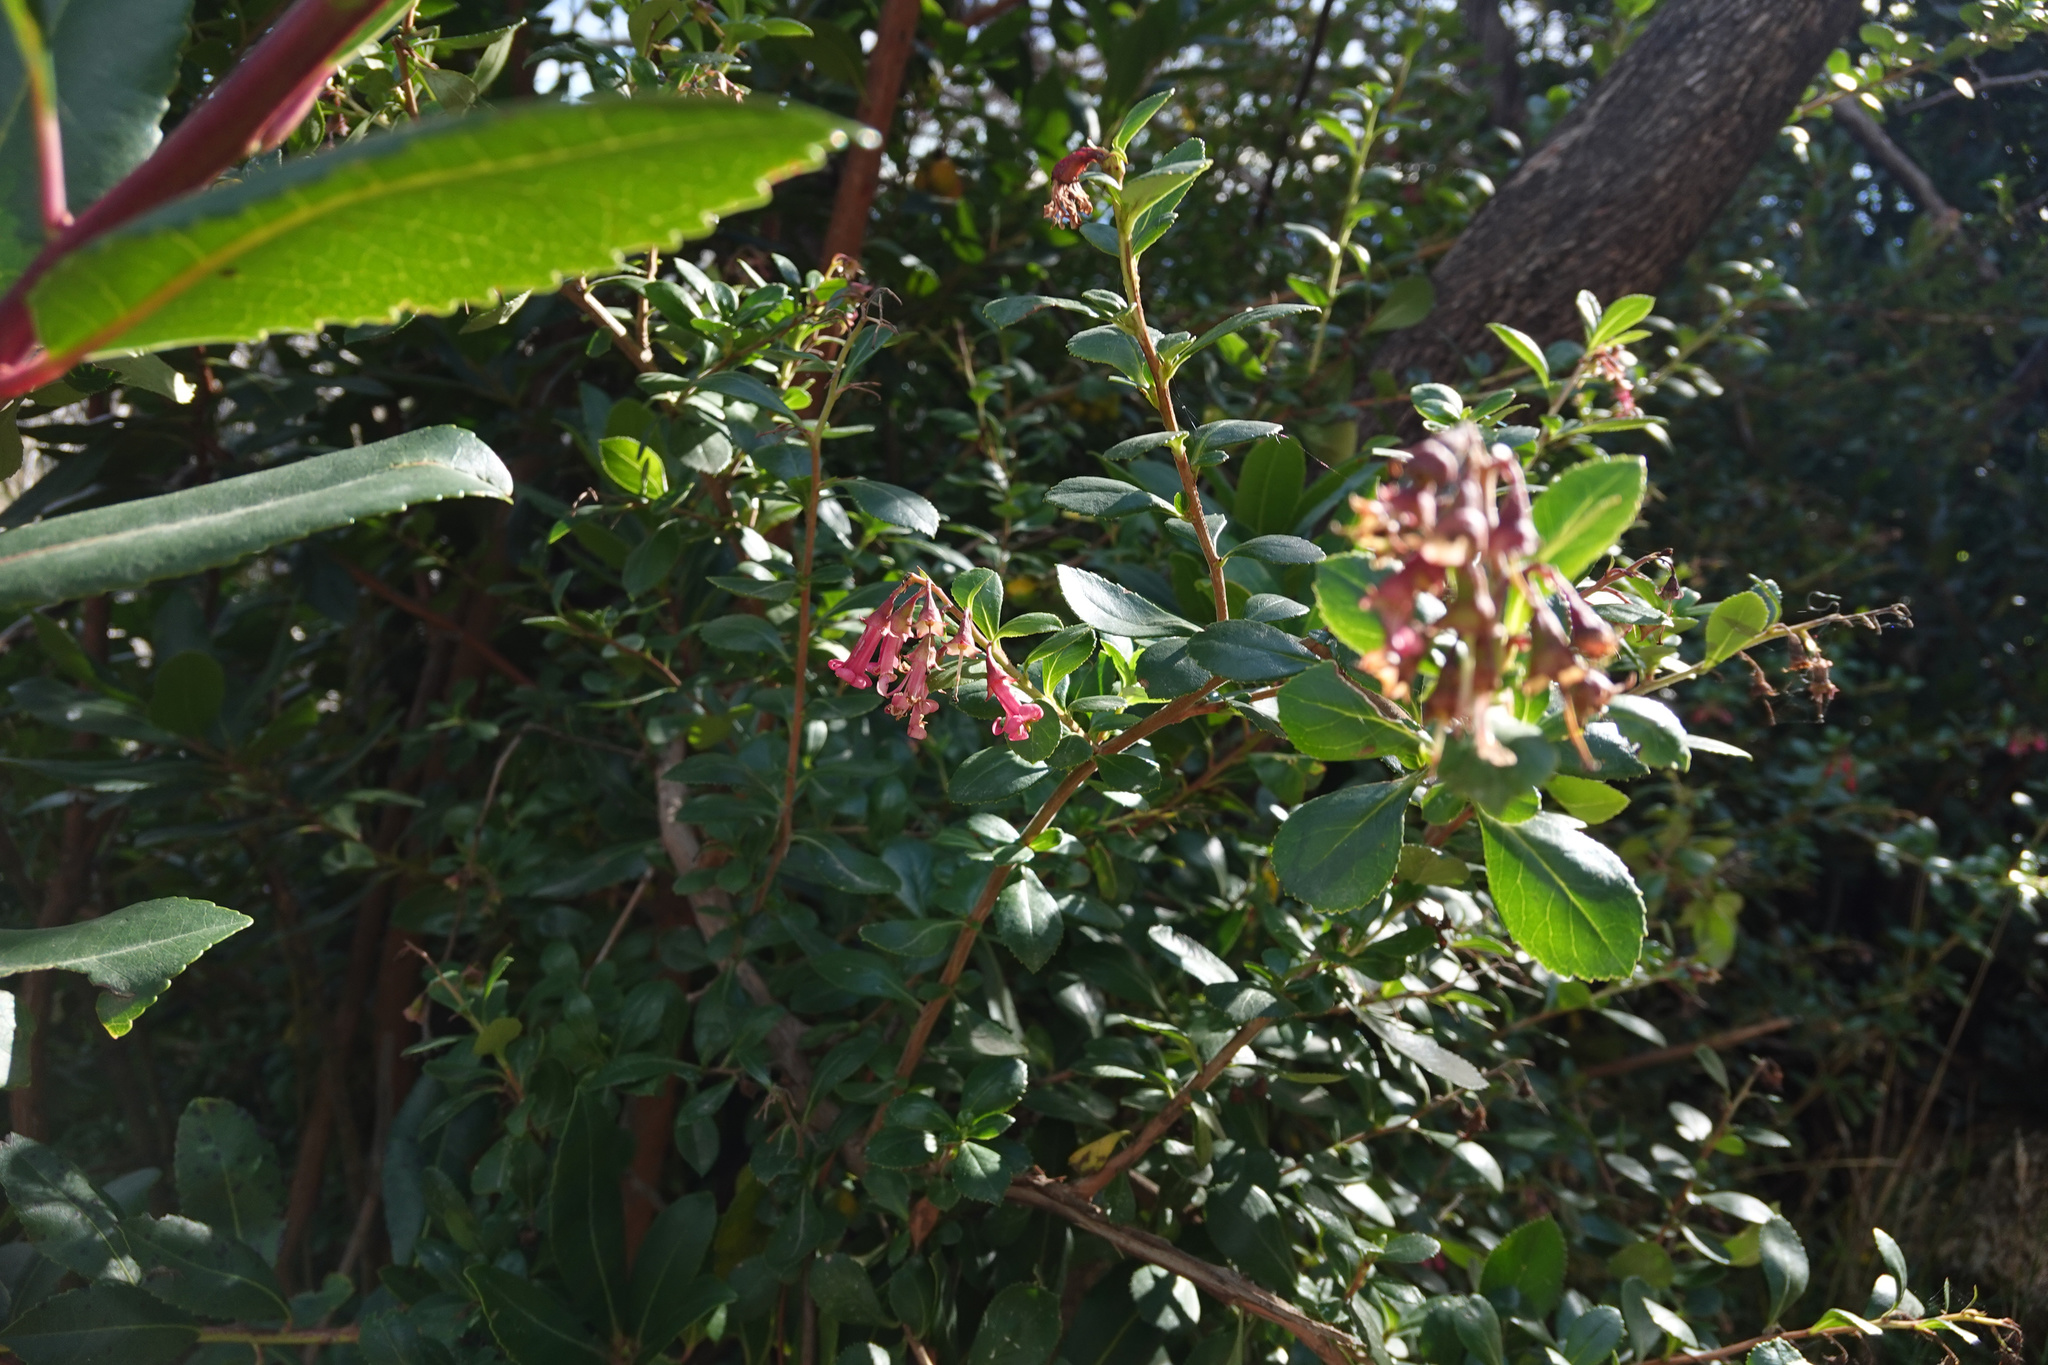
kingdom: Plantae
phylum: Tracheophyta
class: Magnoliopsida
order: Escalloniales
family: Escalloniaceae
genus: Escallonia
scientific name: Escallonia rubra
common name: Redclaws
